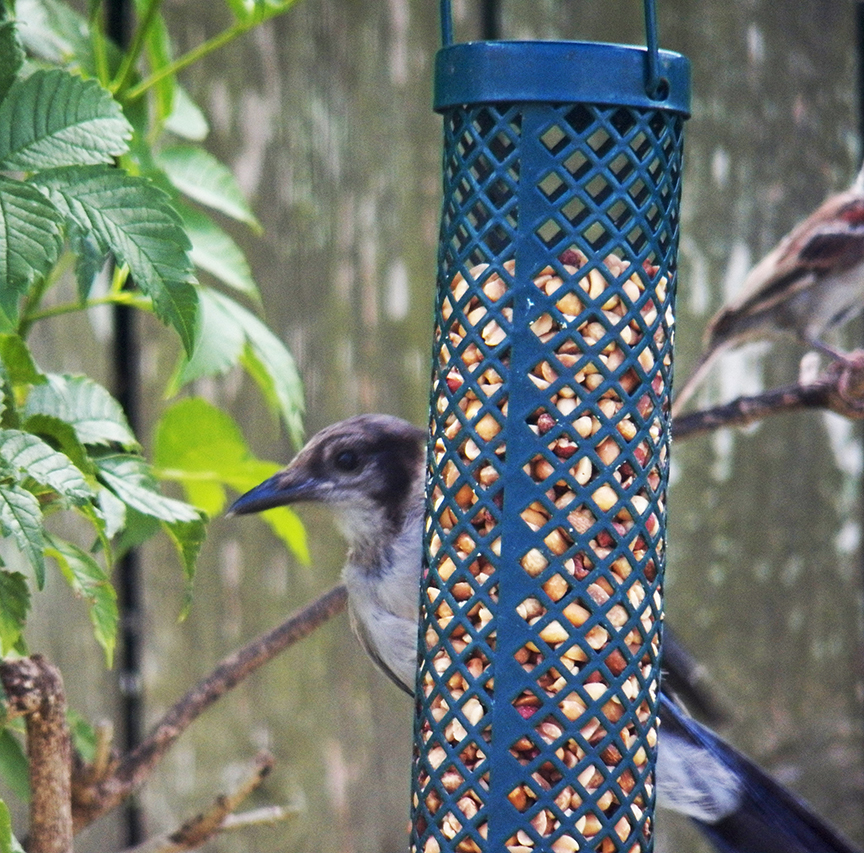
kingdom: Animalia
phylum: Chordata
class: Aves
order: Passeriformes
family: Corvidae
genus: Cyanocitta
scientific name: Cyanocitta cristata
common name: Blue jay
